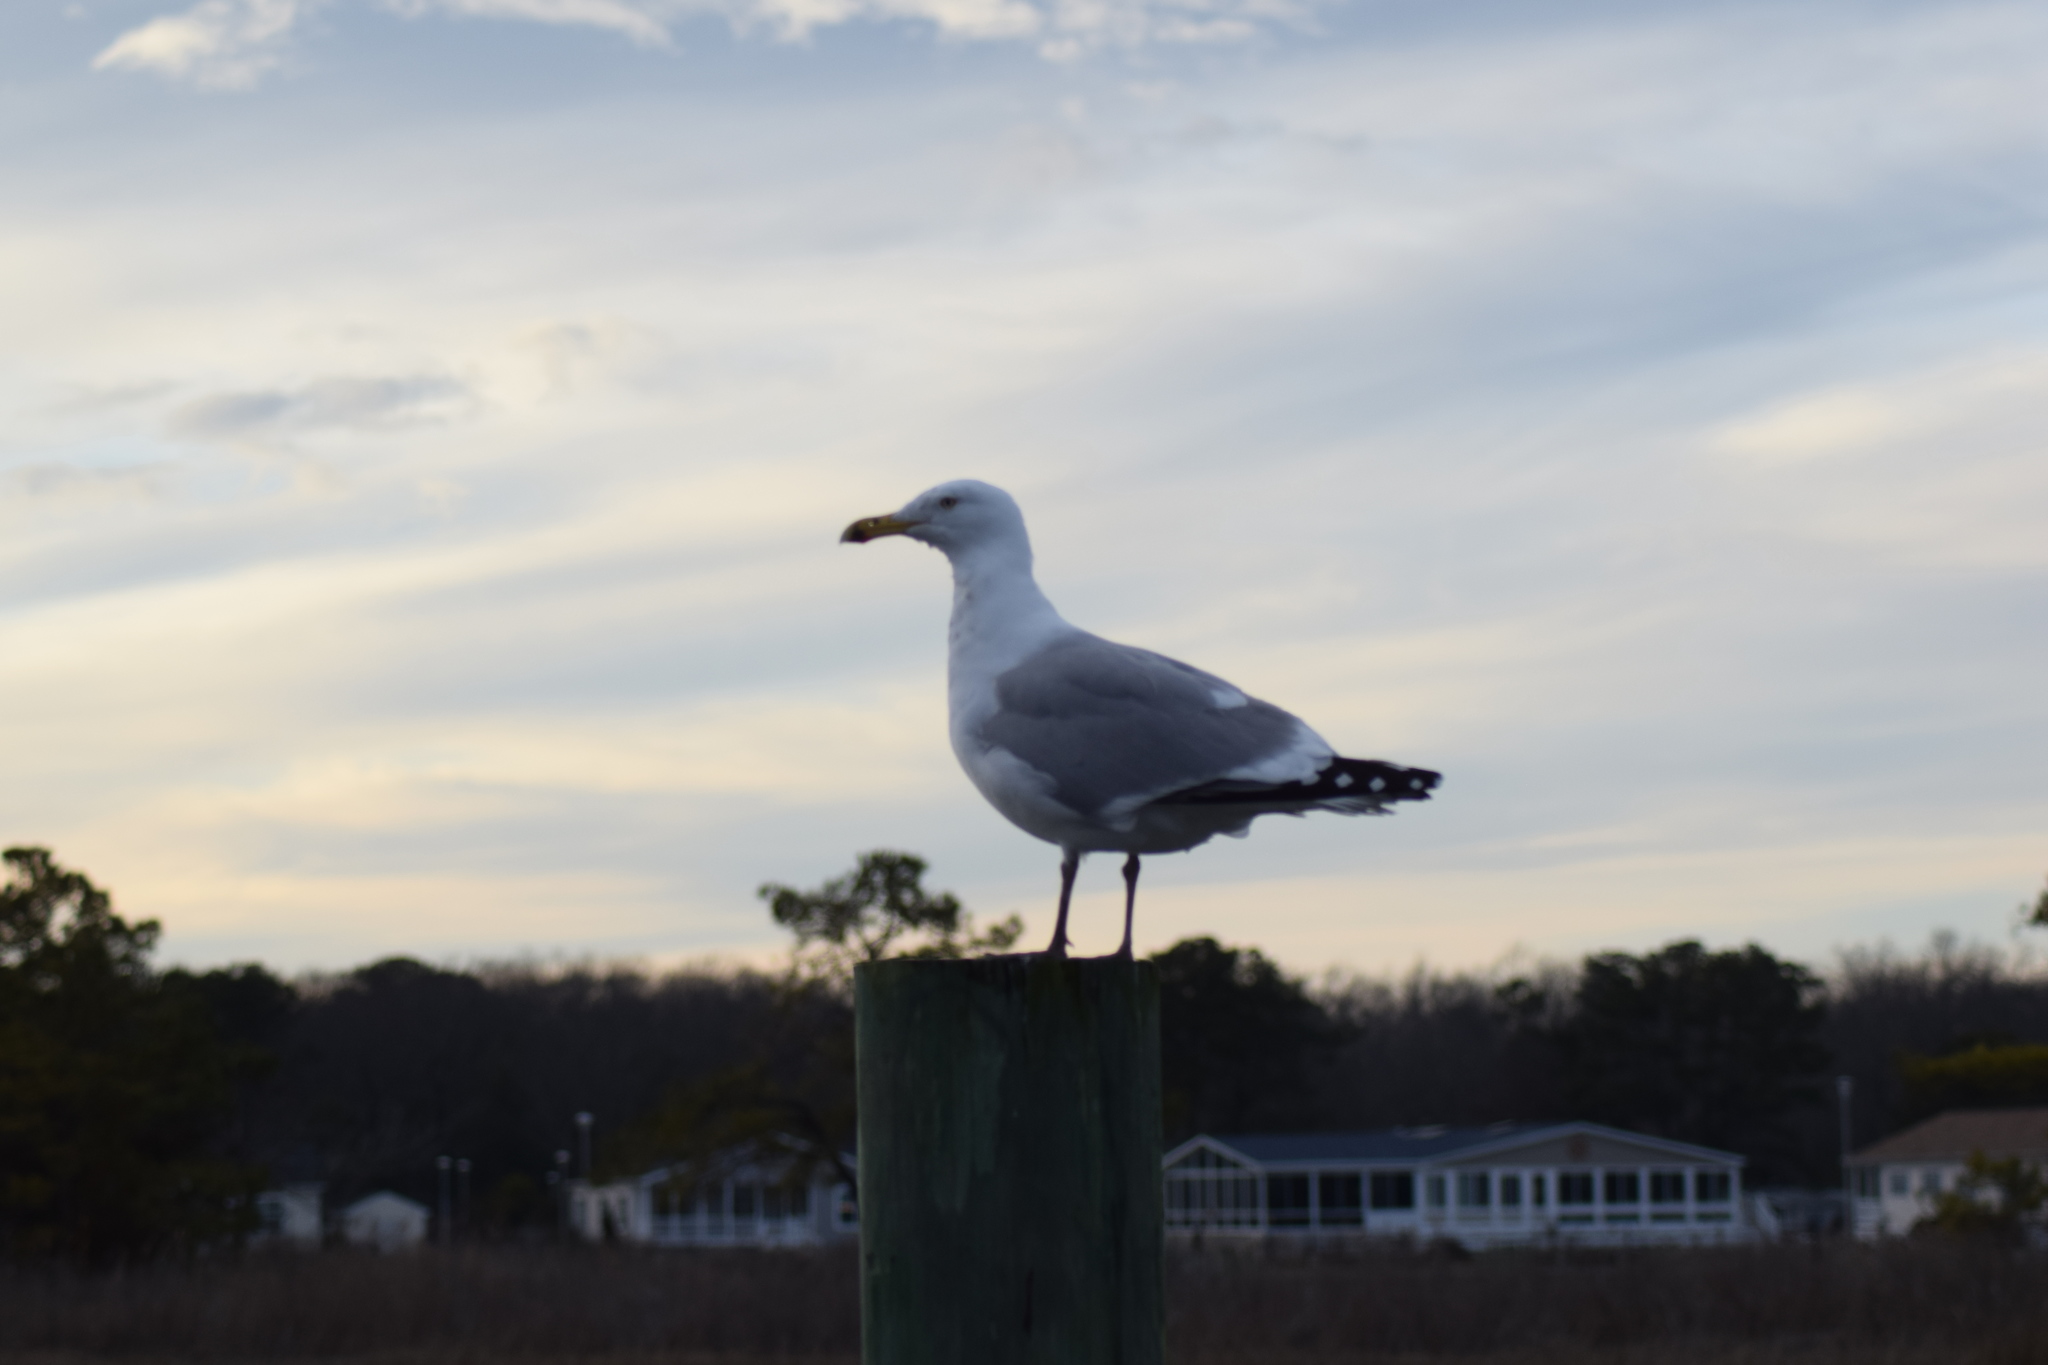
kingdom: Animalia
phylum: Chordata
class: Aves
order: Charadriiformes
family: Laridae
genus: Larus
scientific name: Larus argentatus
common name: Herring gull
